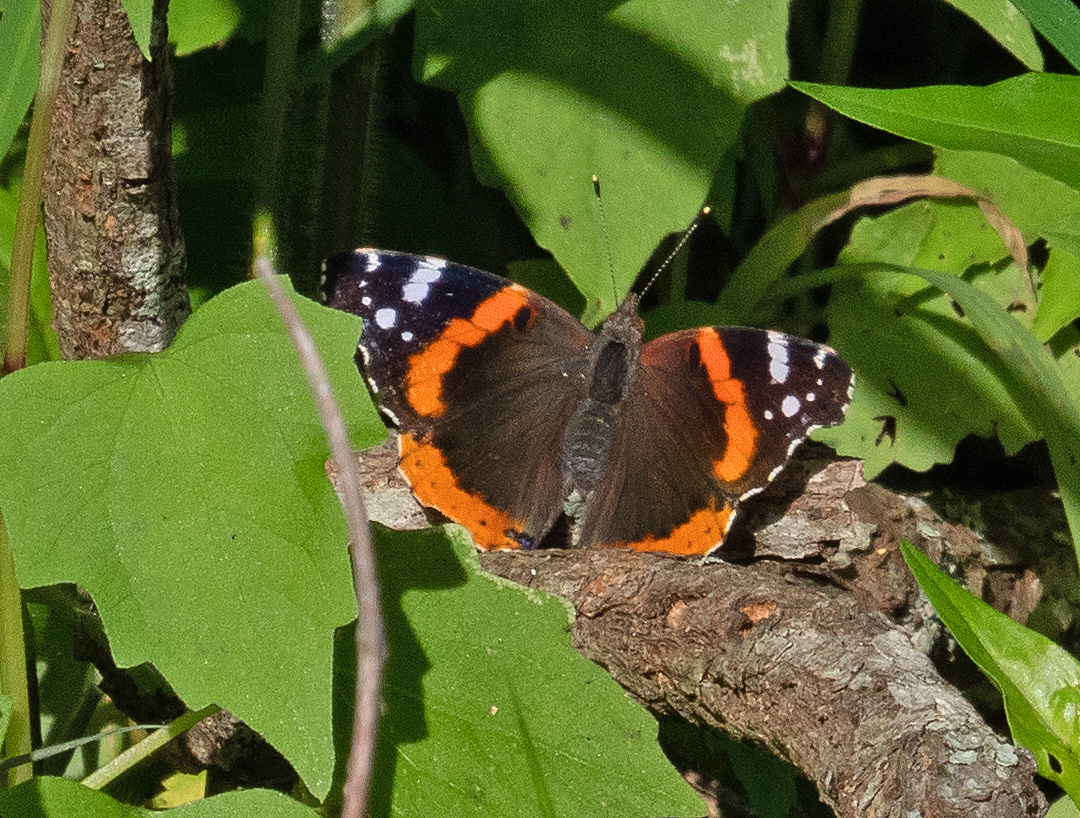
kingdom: Animalia
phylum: Arthropoda
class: Insecta
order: Lepidoptera
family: Nymphalidae
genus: Vanessa
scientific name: Vanessa atalanta
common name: Red admiral
